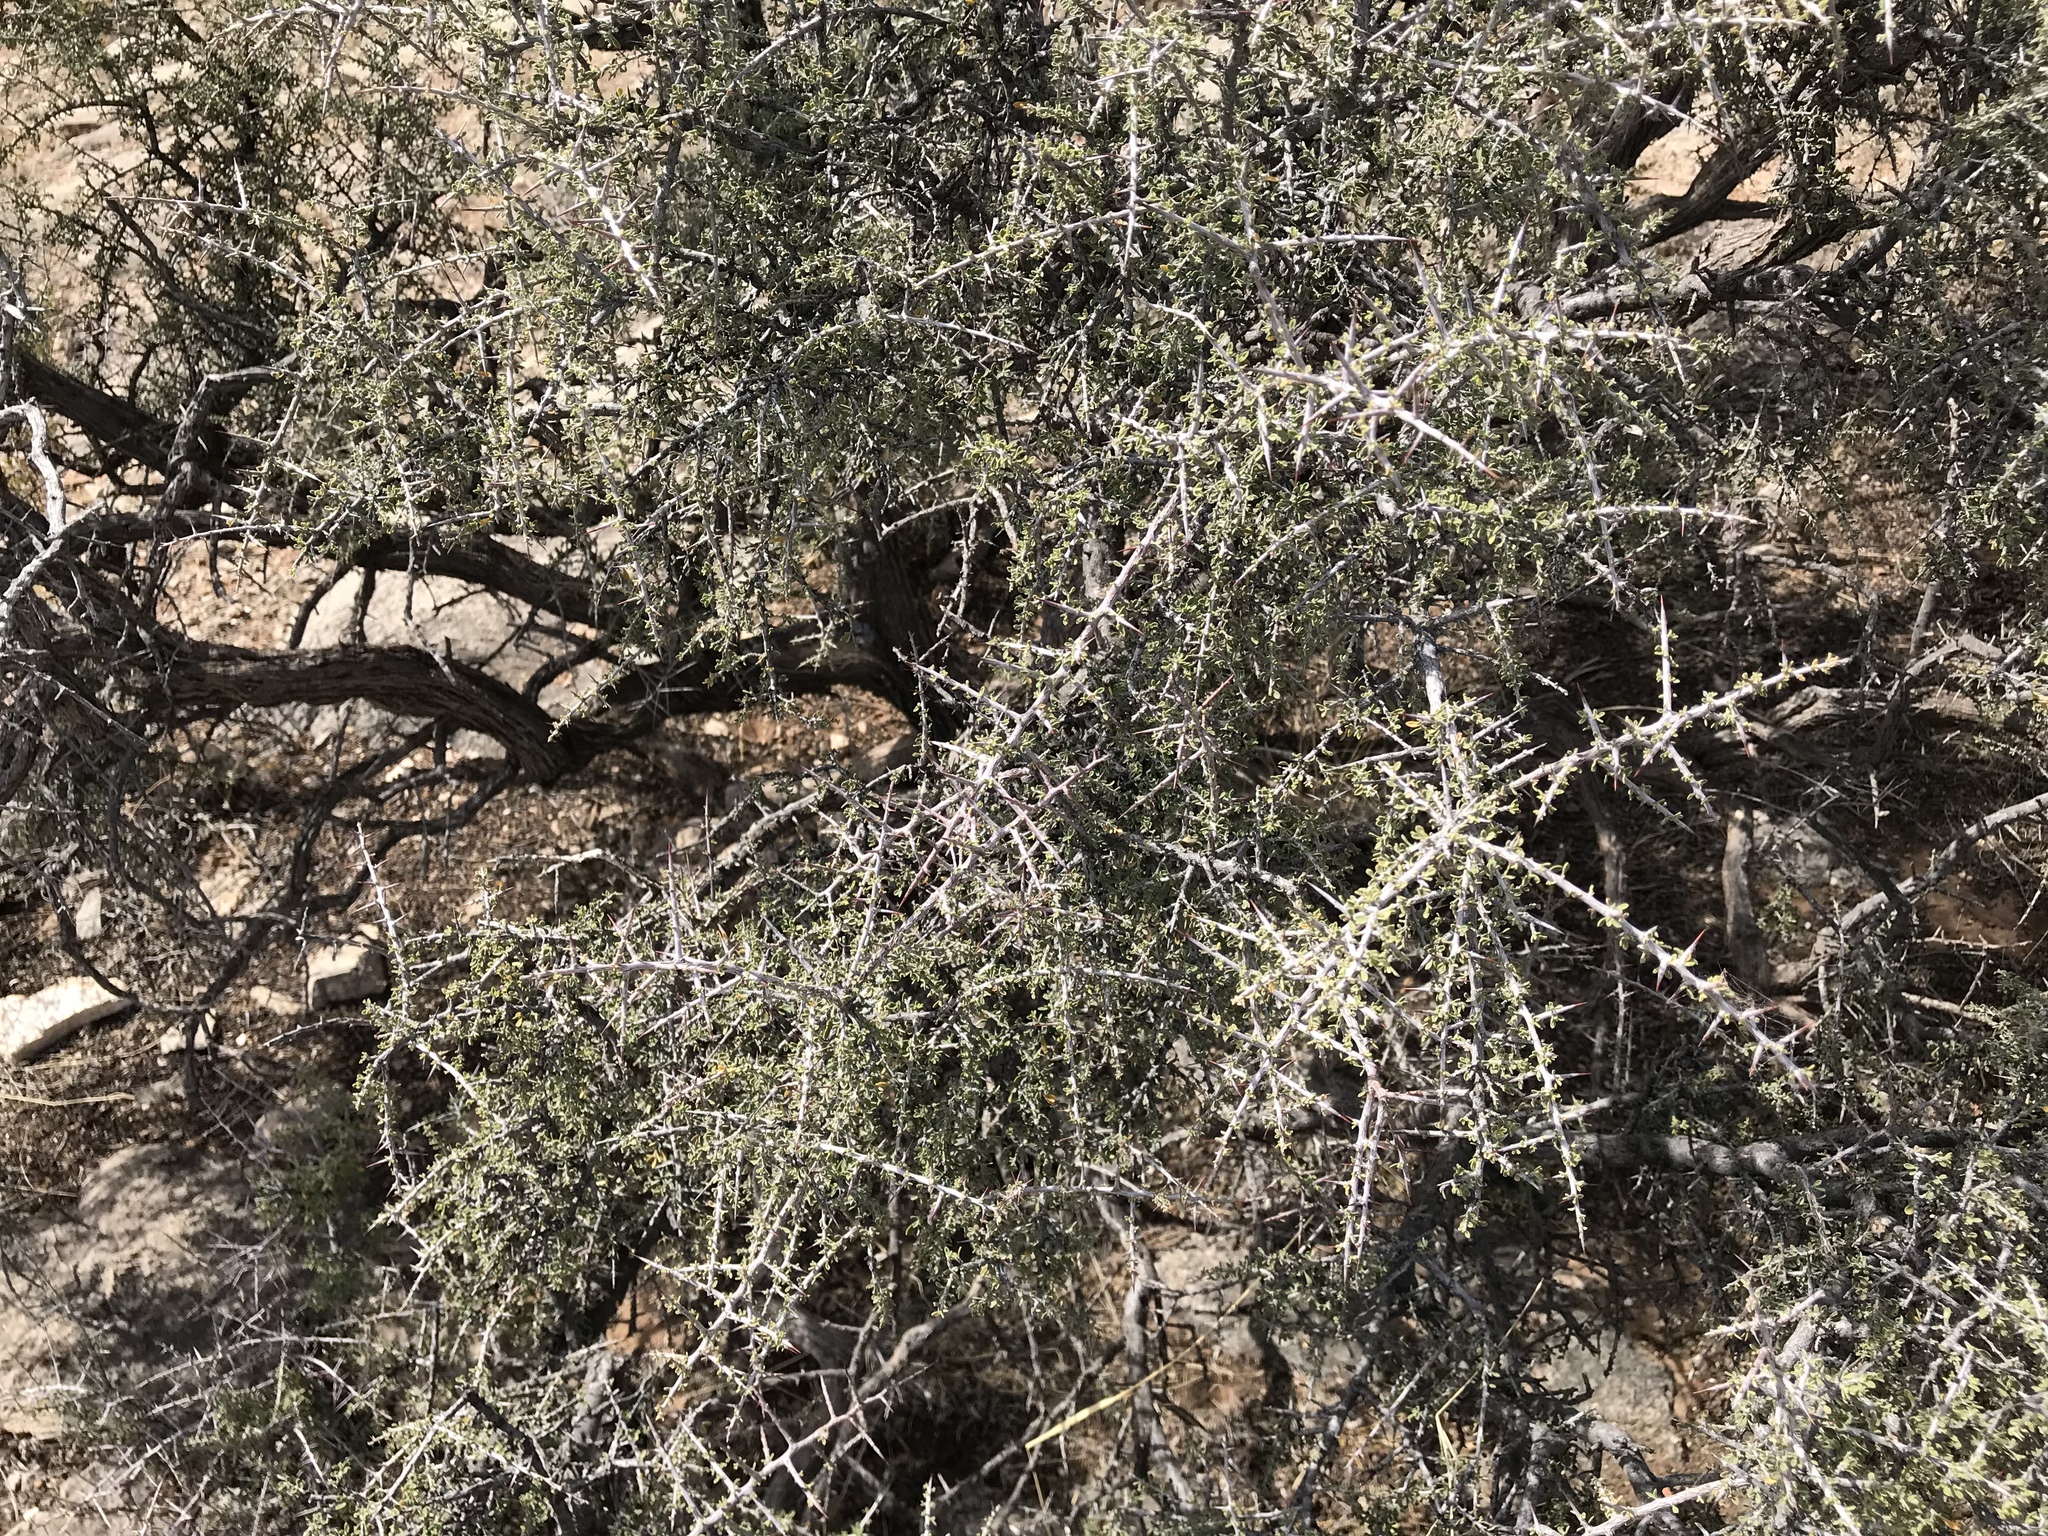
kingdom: Plantae
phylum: Tracheophyta
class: Magnoliopsida
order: Rosales
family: Rhamnaceae
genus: Condalia
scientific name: Condalia warnockii
